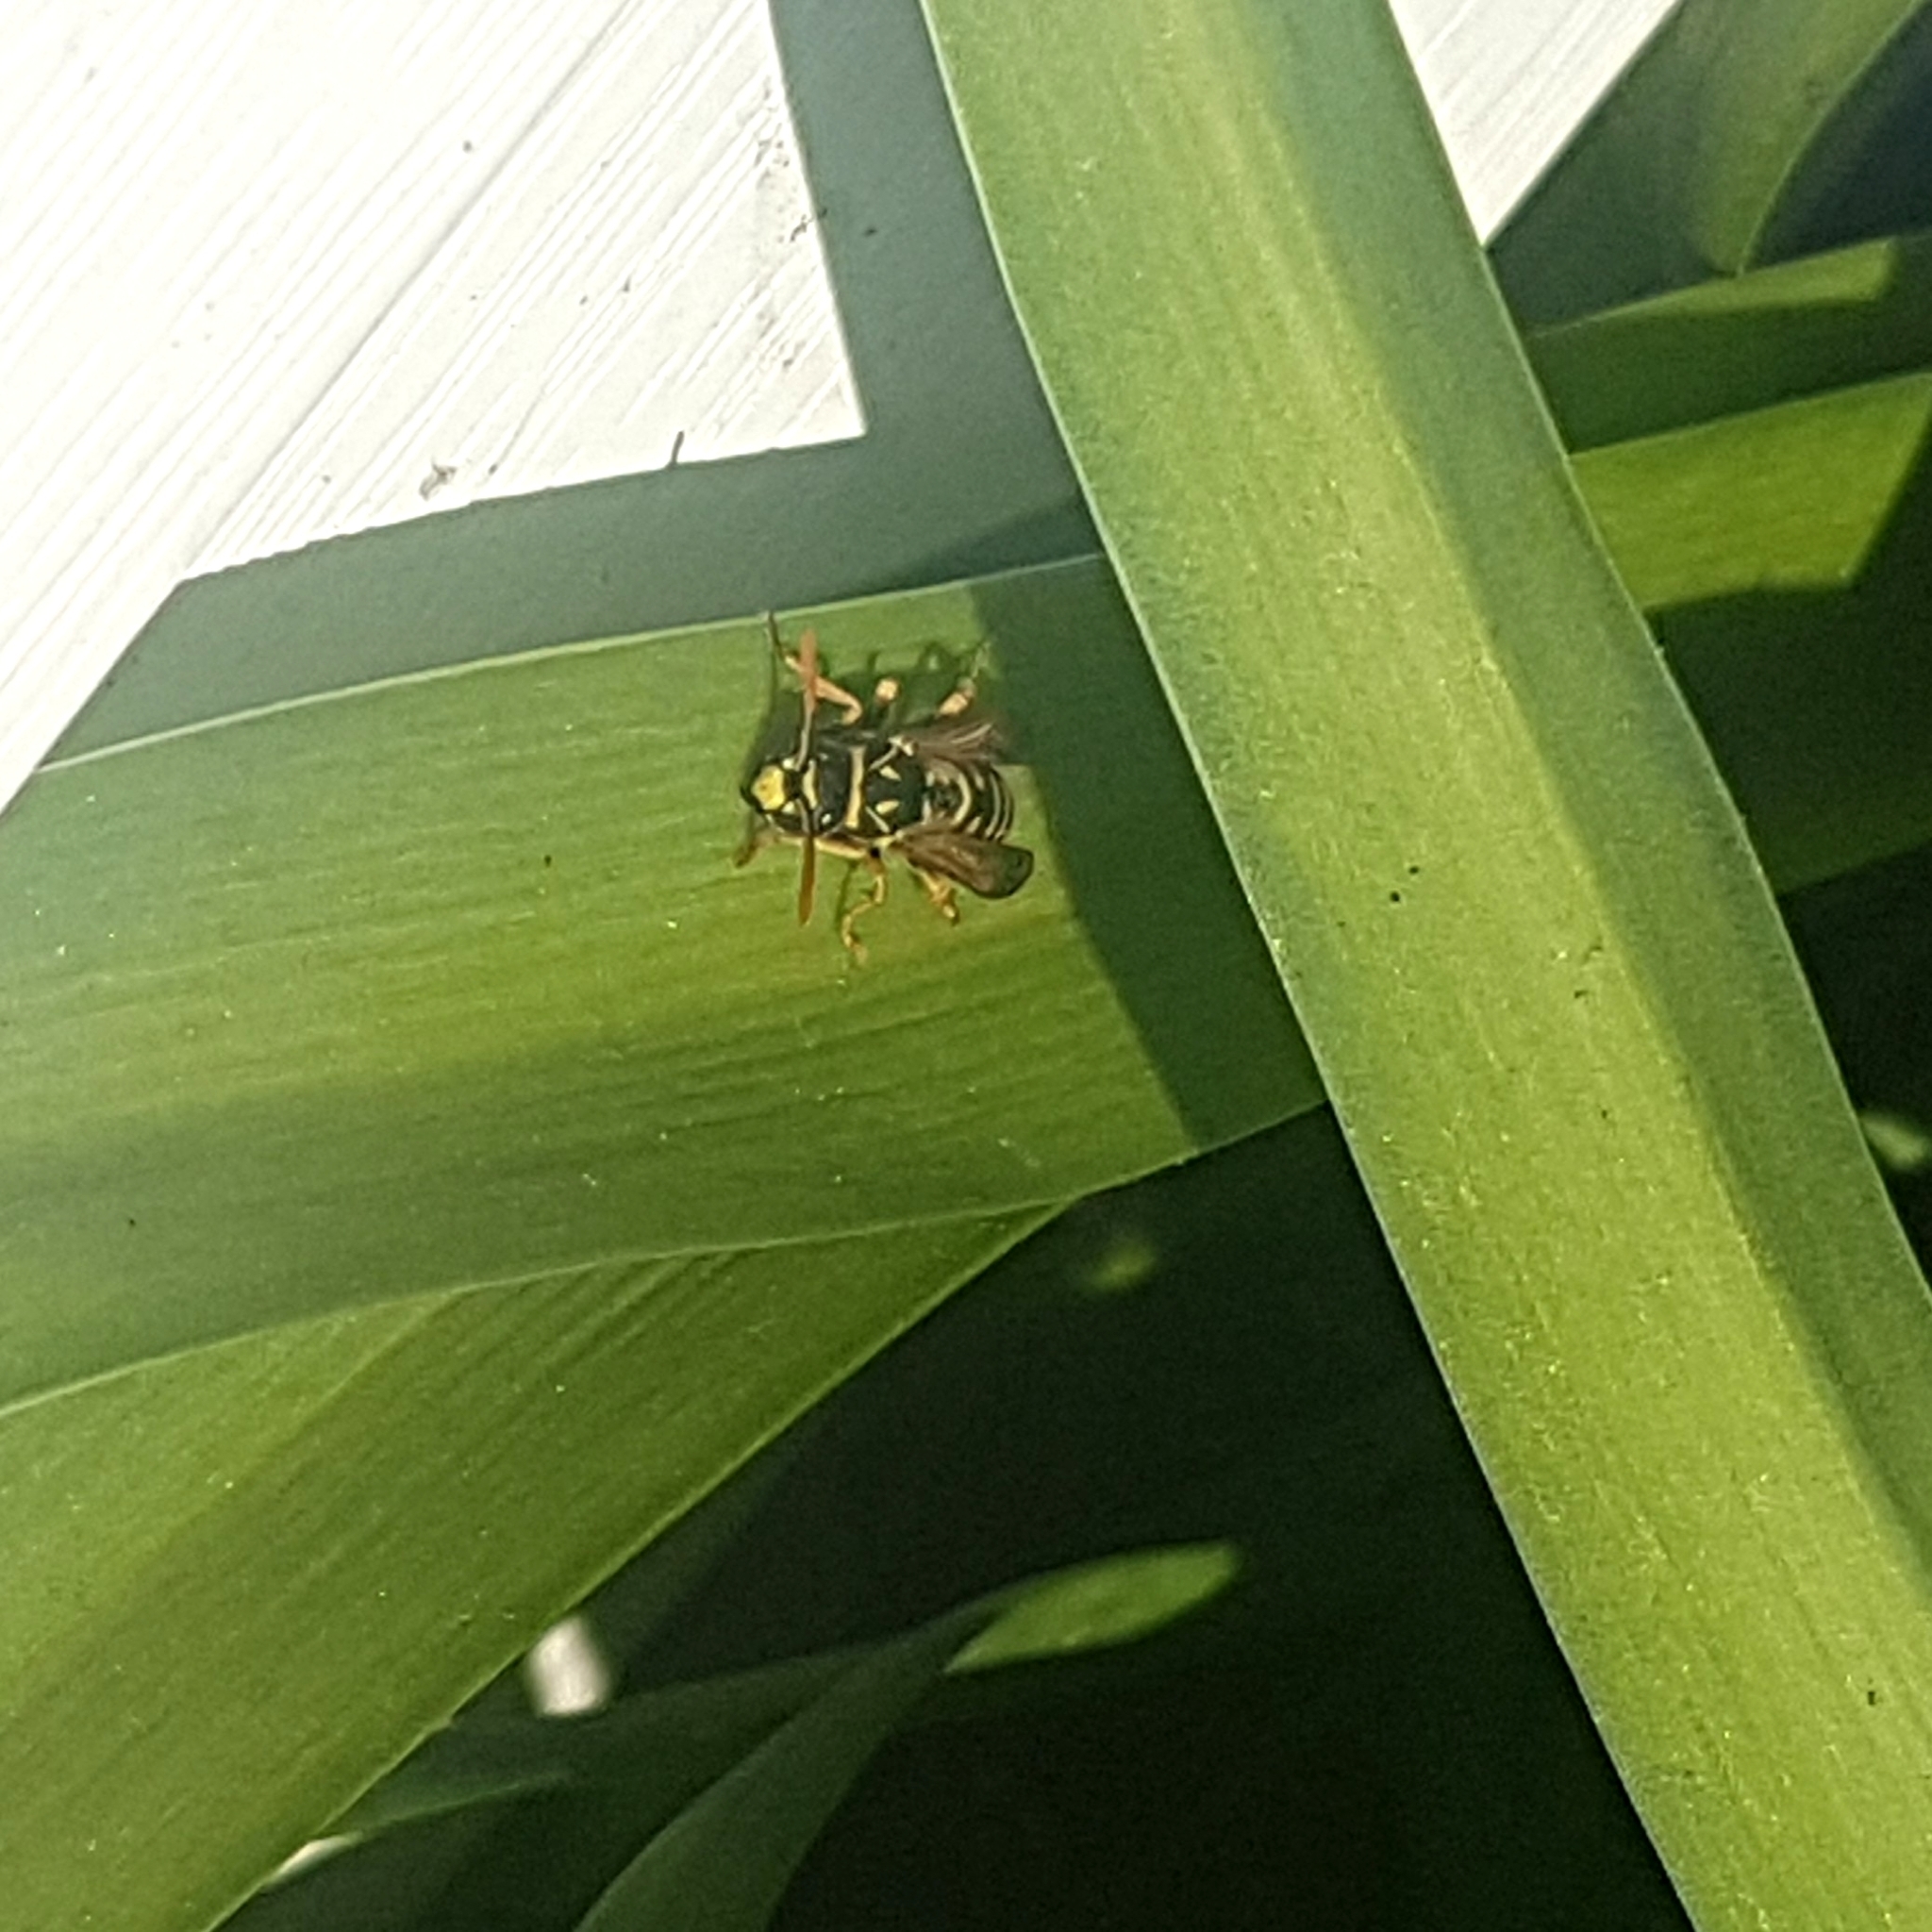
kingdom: Animalia
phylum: Arthropoda
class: Insecta
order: Hymenoptera
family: Eumenidae
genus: Polistes
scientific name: Polistes dominula
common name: Paper wasp
